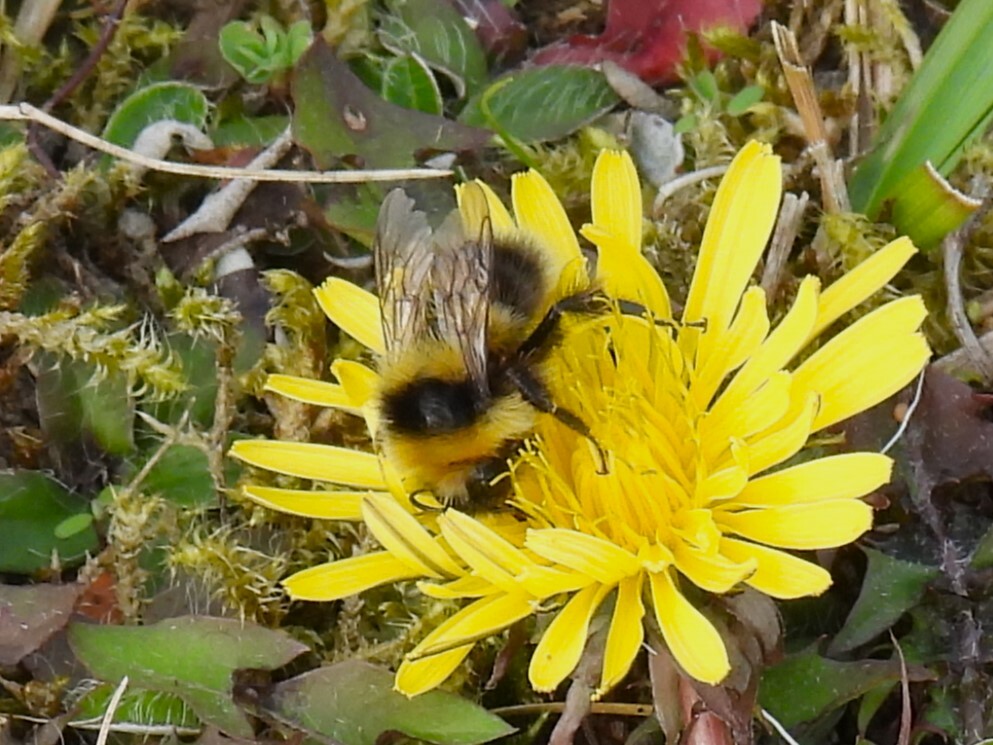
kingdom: Animalia
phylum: Arthropoda
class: Insecta
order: Hymenoptera
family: Apidae
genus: Bombus
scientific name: Bombus jonellus
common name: Heath humble-bee
